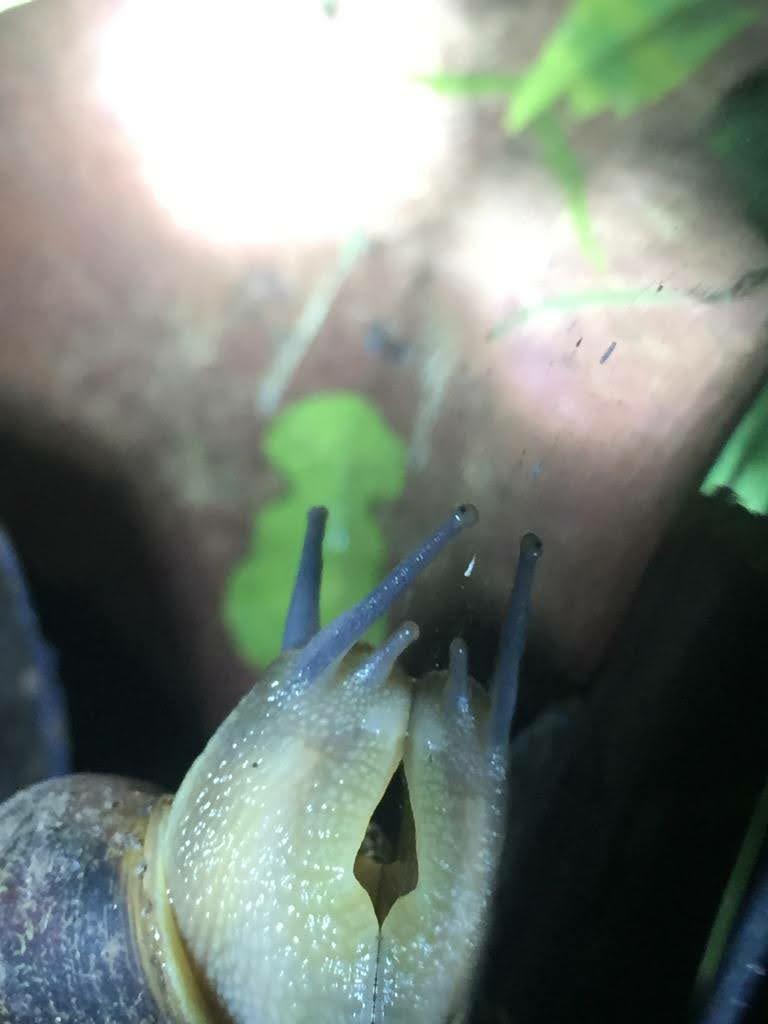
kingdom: Animalia
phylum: Mollusca
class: Gastropoda
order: Stylommatophora
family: Helicidae
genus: Cornu
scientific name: Cornu aspersum
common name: Brown garden snail
